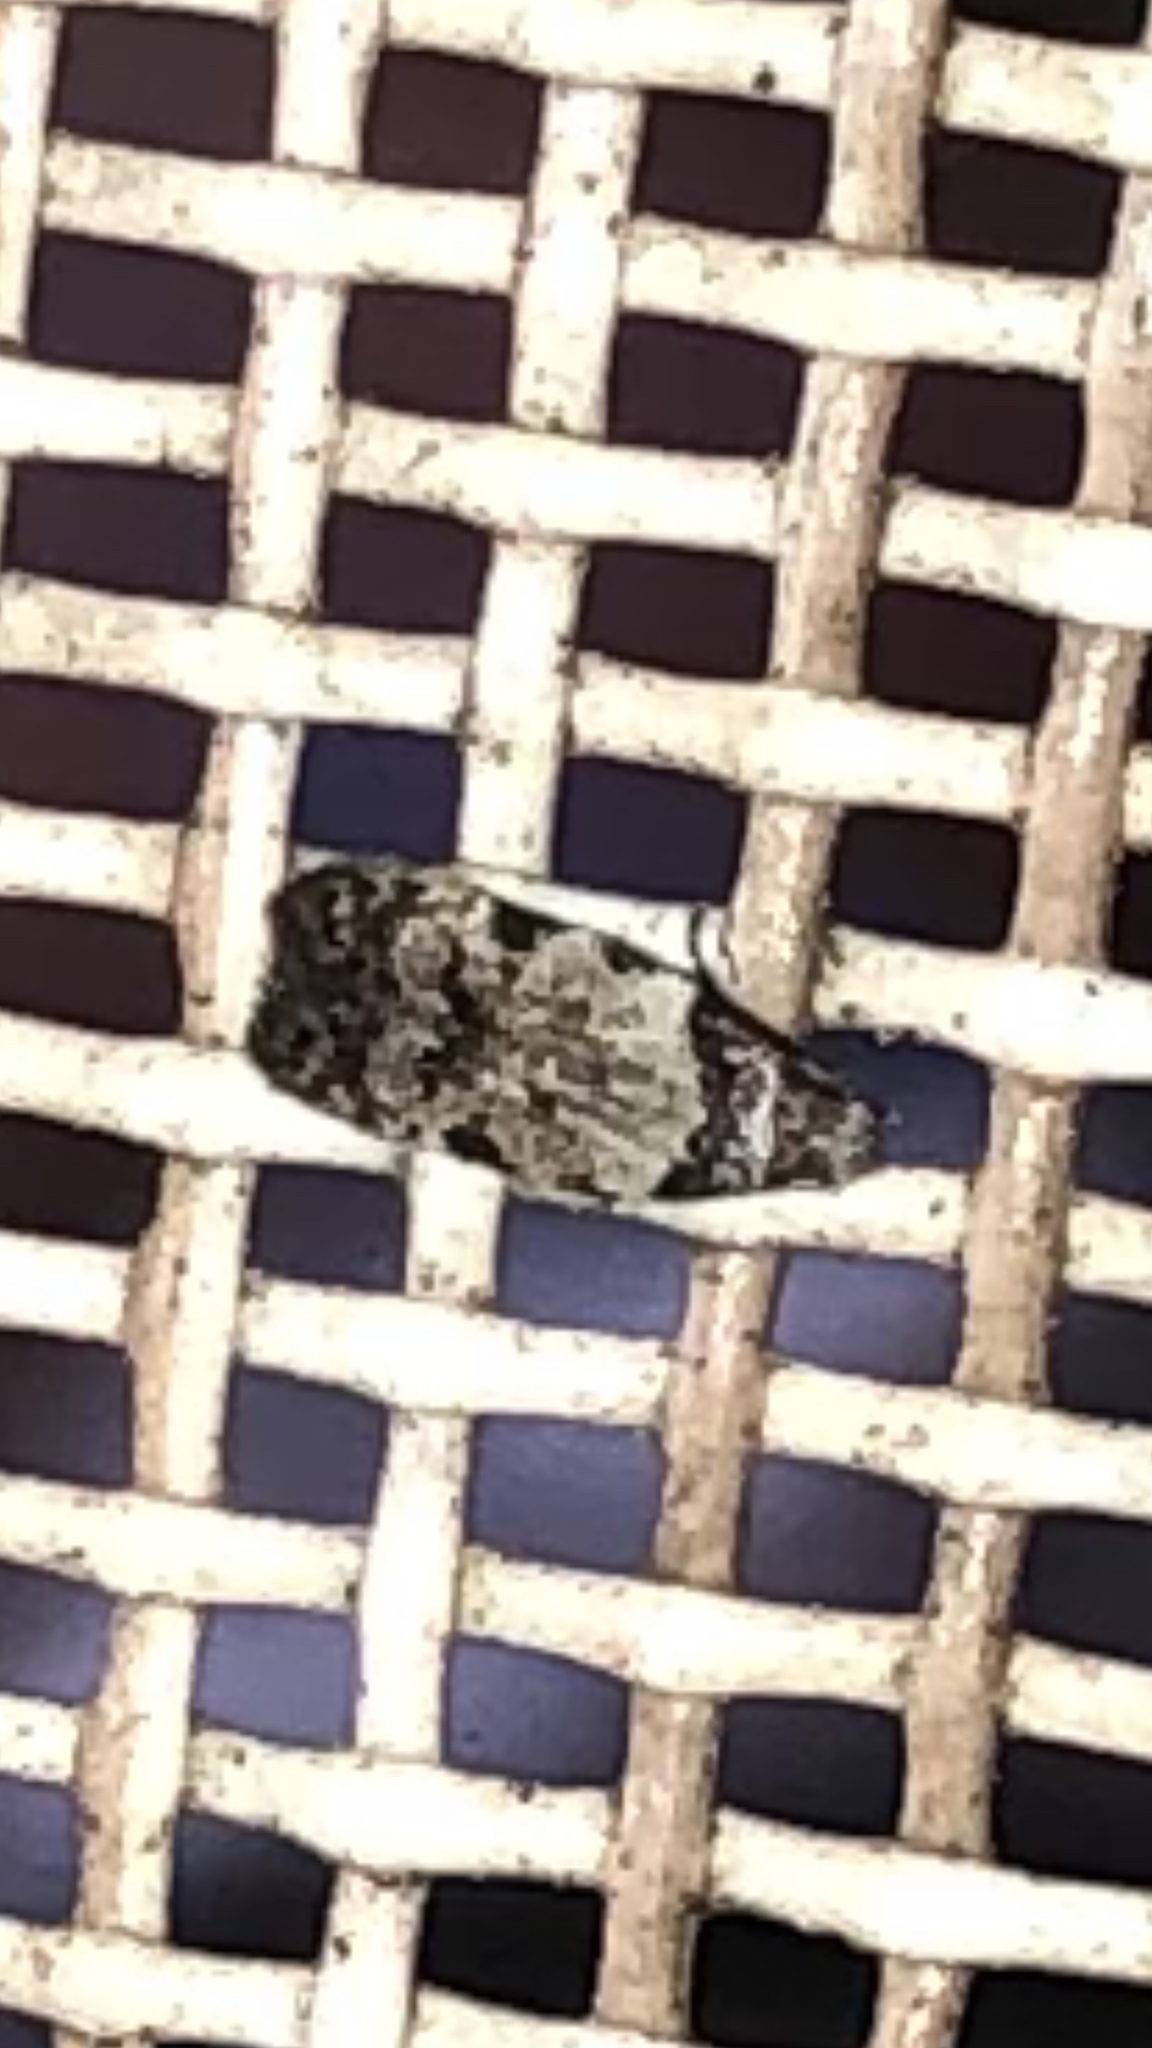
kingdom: Animalia
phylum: Arthropoda
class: Insecta
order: Lepidoptera
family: Autostichidae
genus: Taygete
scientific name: Taygete attributella
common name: Triangle-marked twirler moth
